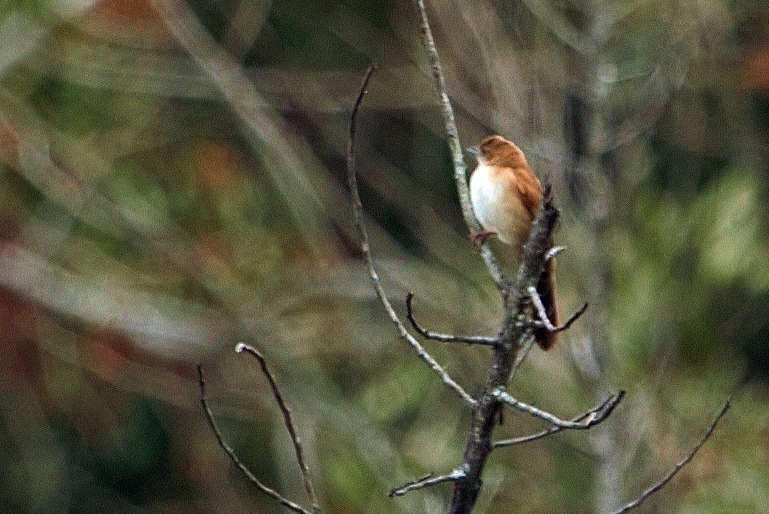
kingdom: Animalia
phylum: Chordata
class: Aves
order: Passeriformes
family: Locustellidae
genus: Schoenicola
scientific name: Schoenicola brevirostris
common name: Fan-tailed grassbird
